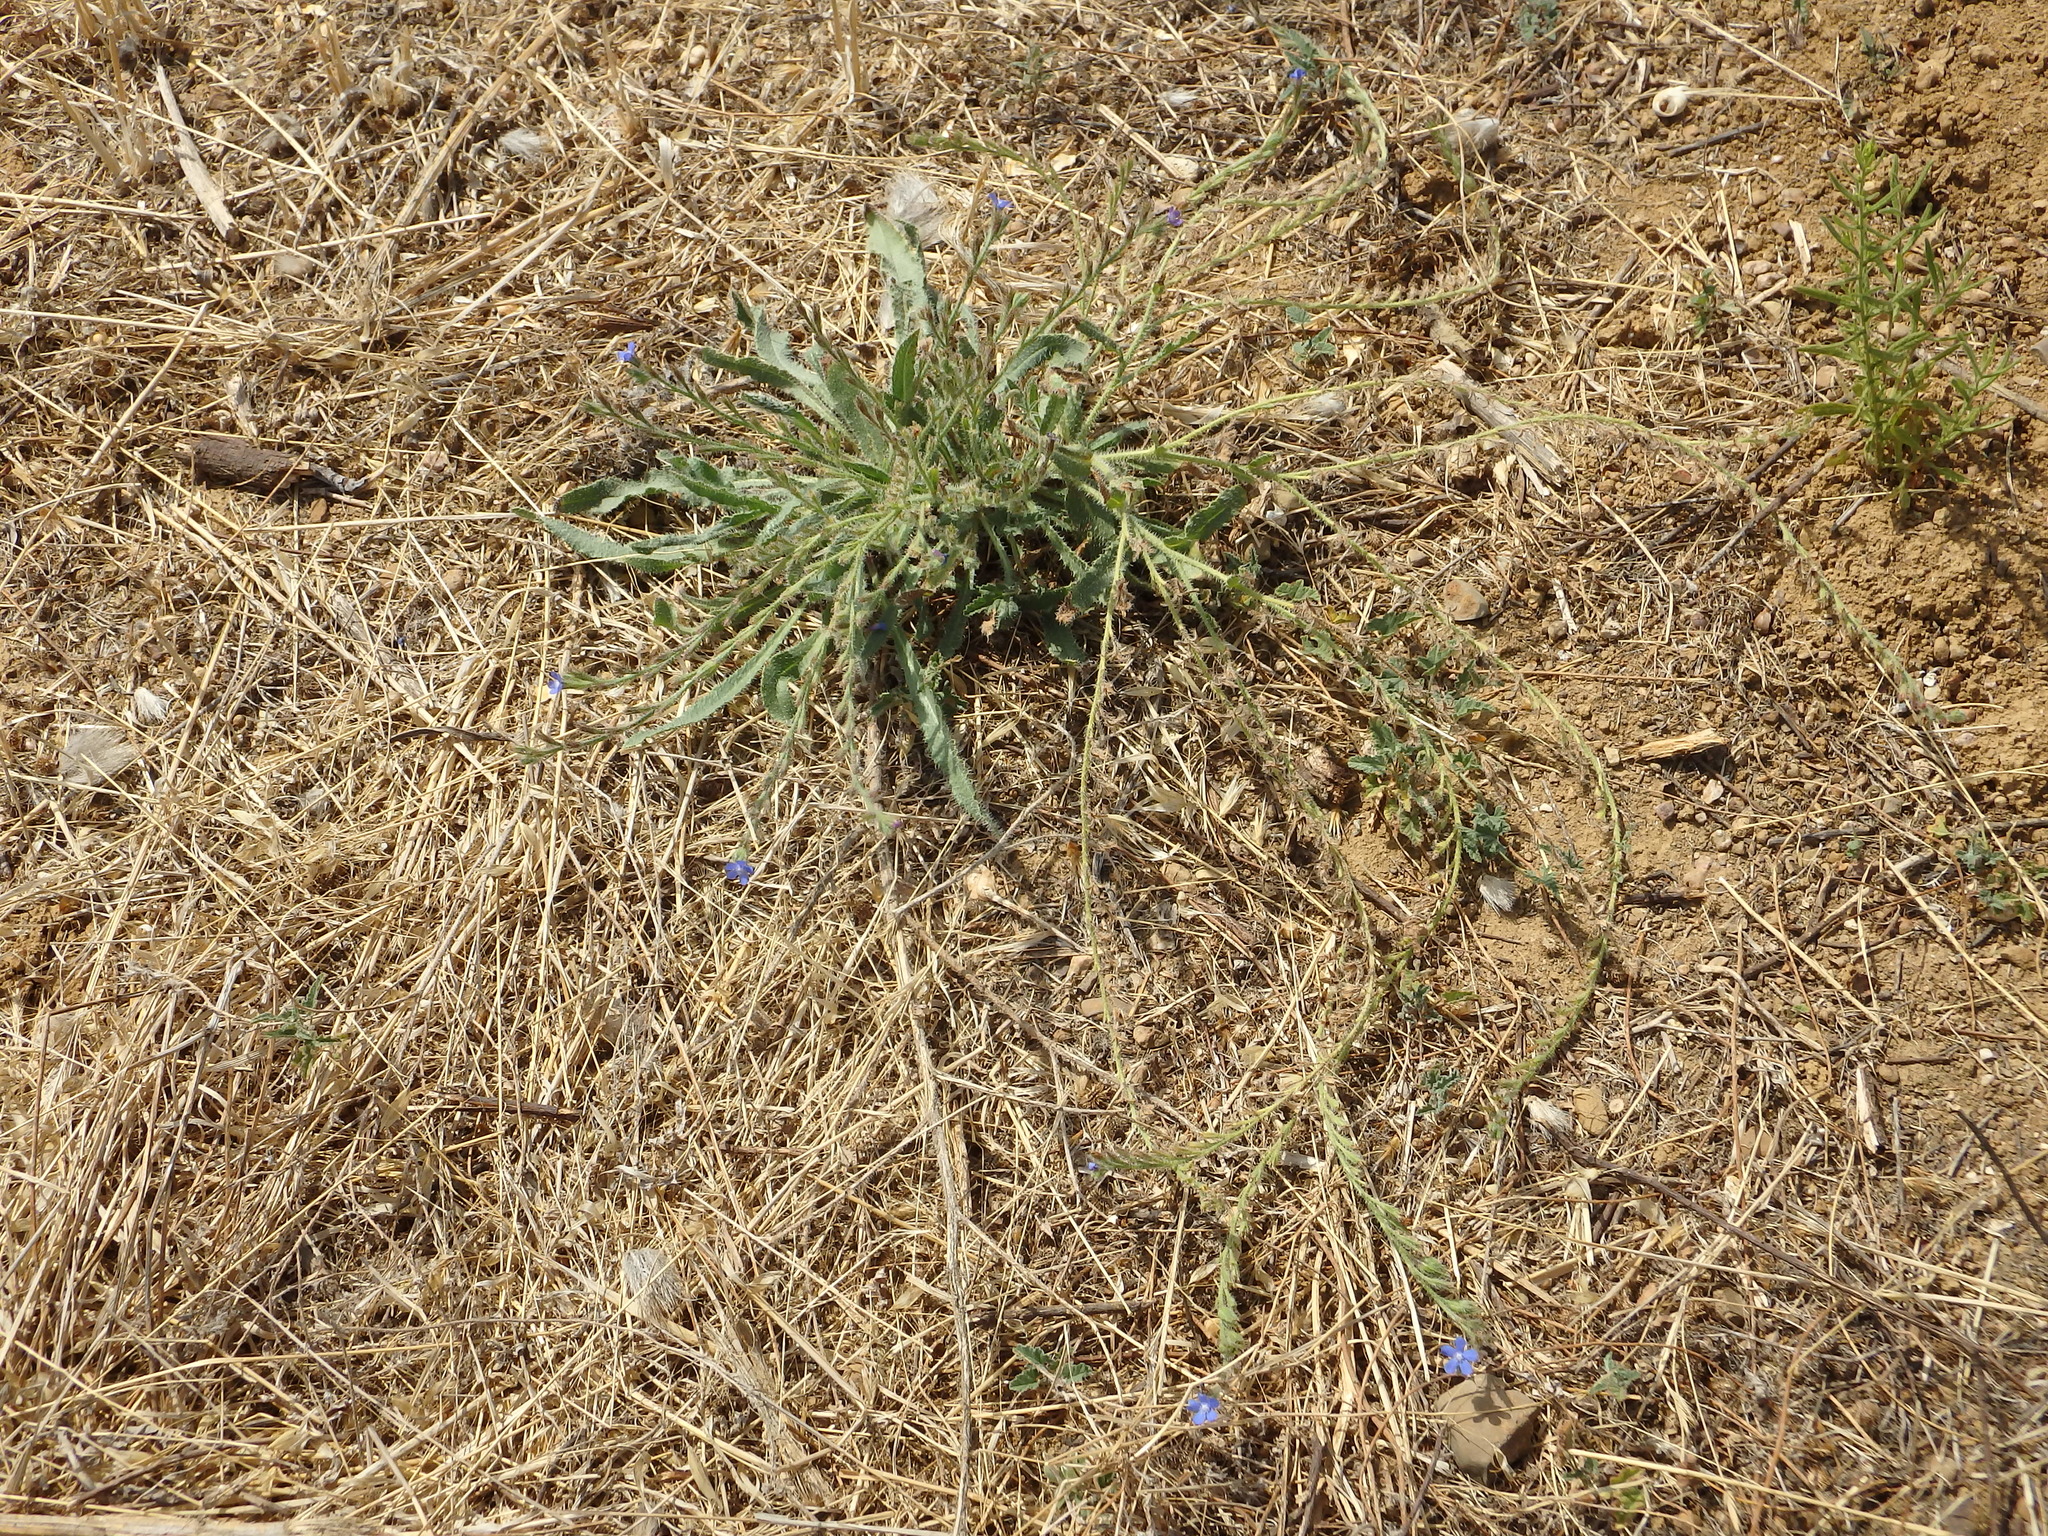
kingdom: Plantae
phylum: Tracheophyta
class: Magnoliopsida
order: Boraginales
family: Boraginaceae
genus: Anchusa
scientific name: Anchusa azurea
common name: Garden anchusa
